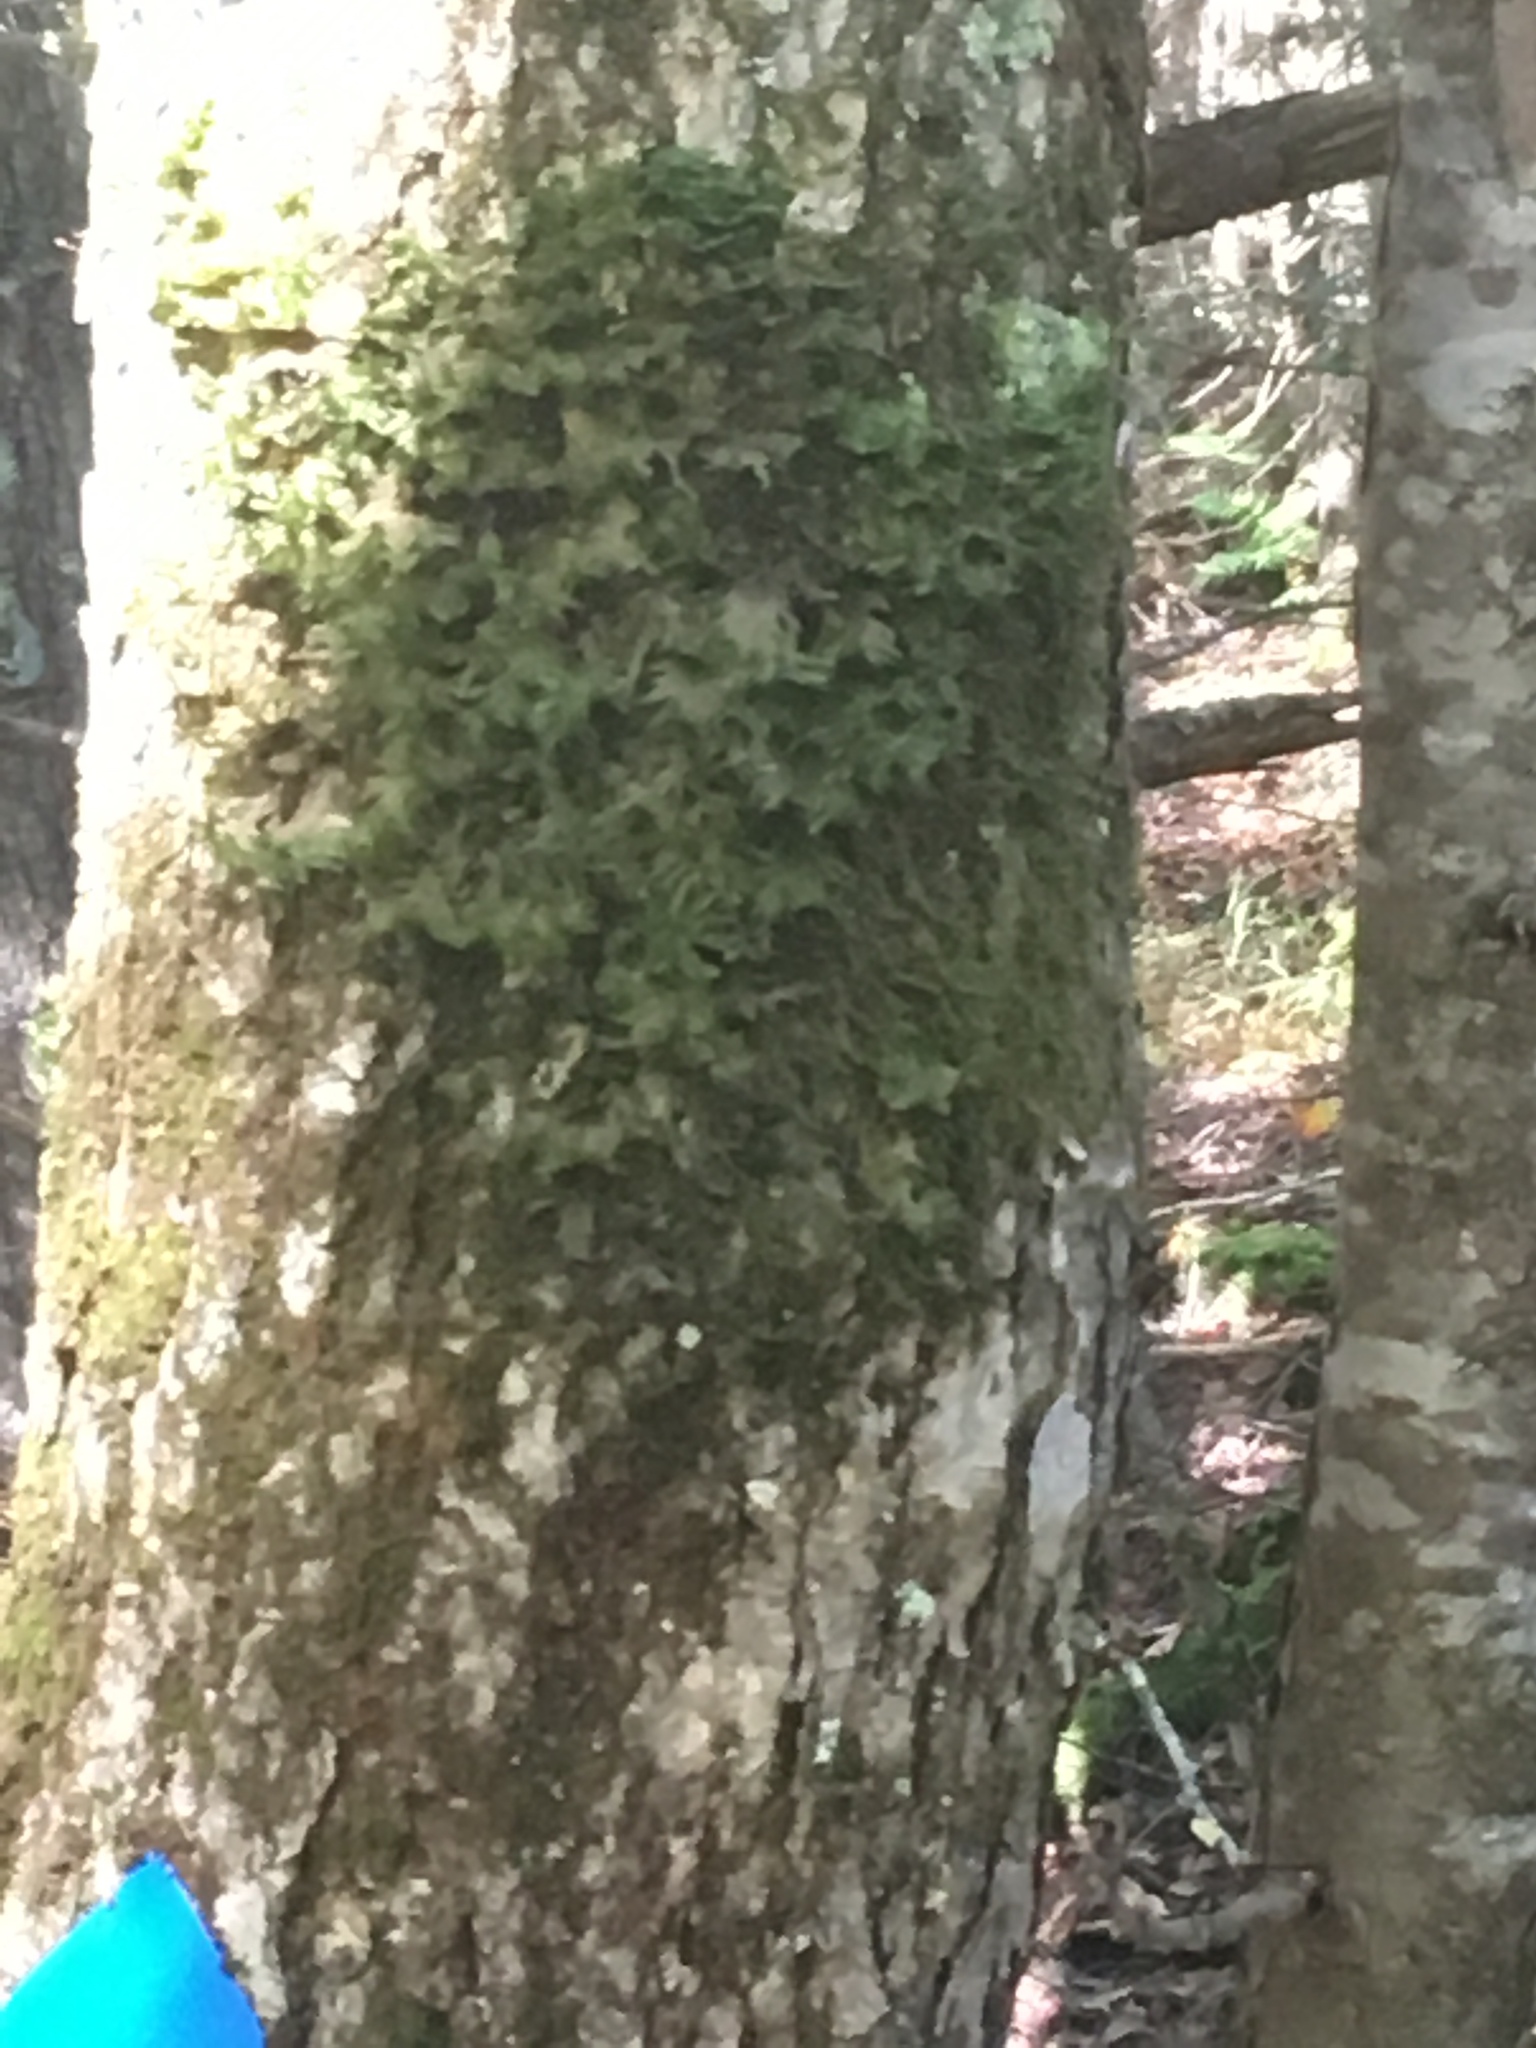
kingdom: Fungi
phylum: Ascomycota
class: Lecanoromycetes
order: Peltigerales
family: Lobariaceae
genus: Lobaria
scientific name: Lobaria pulmonaria
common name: Lungwort
